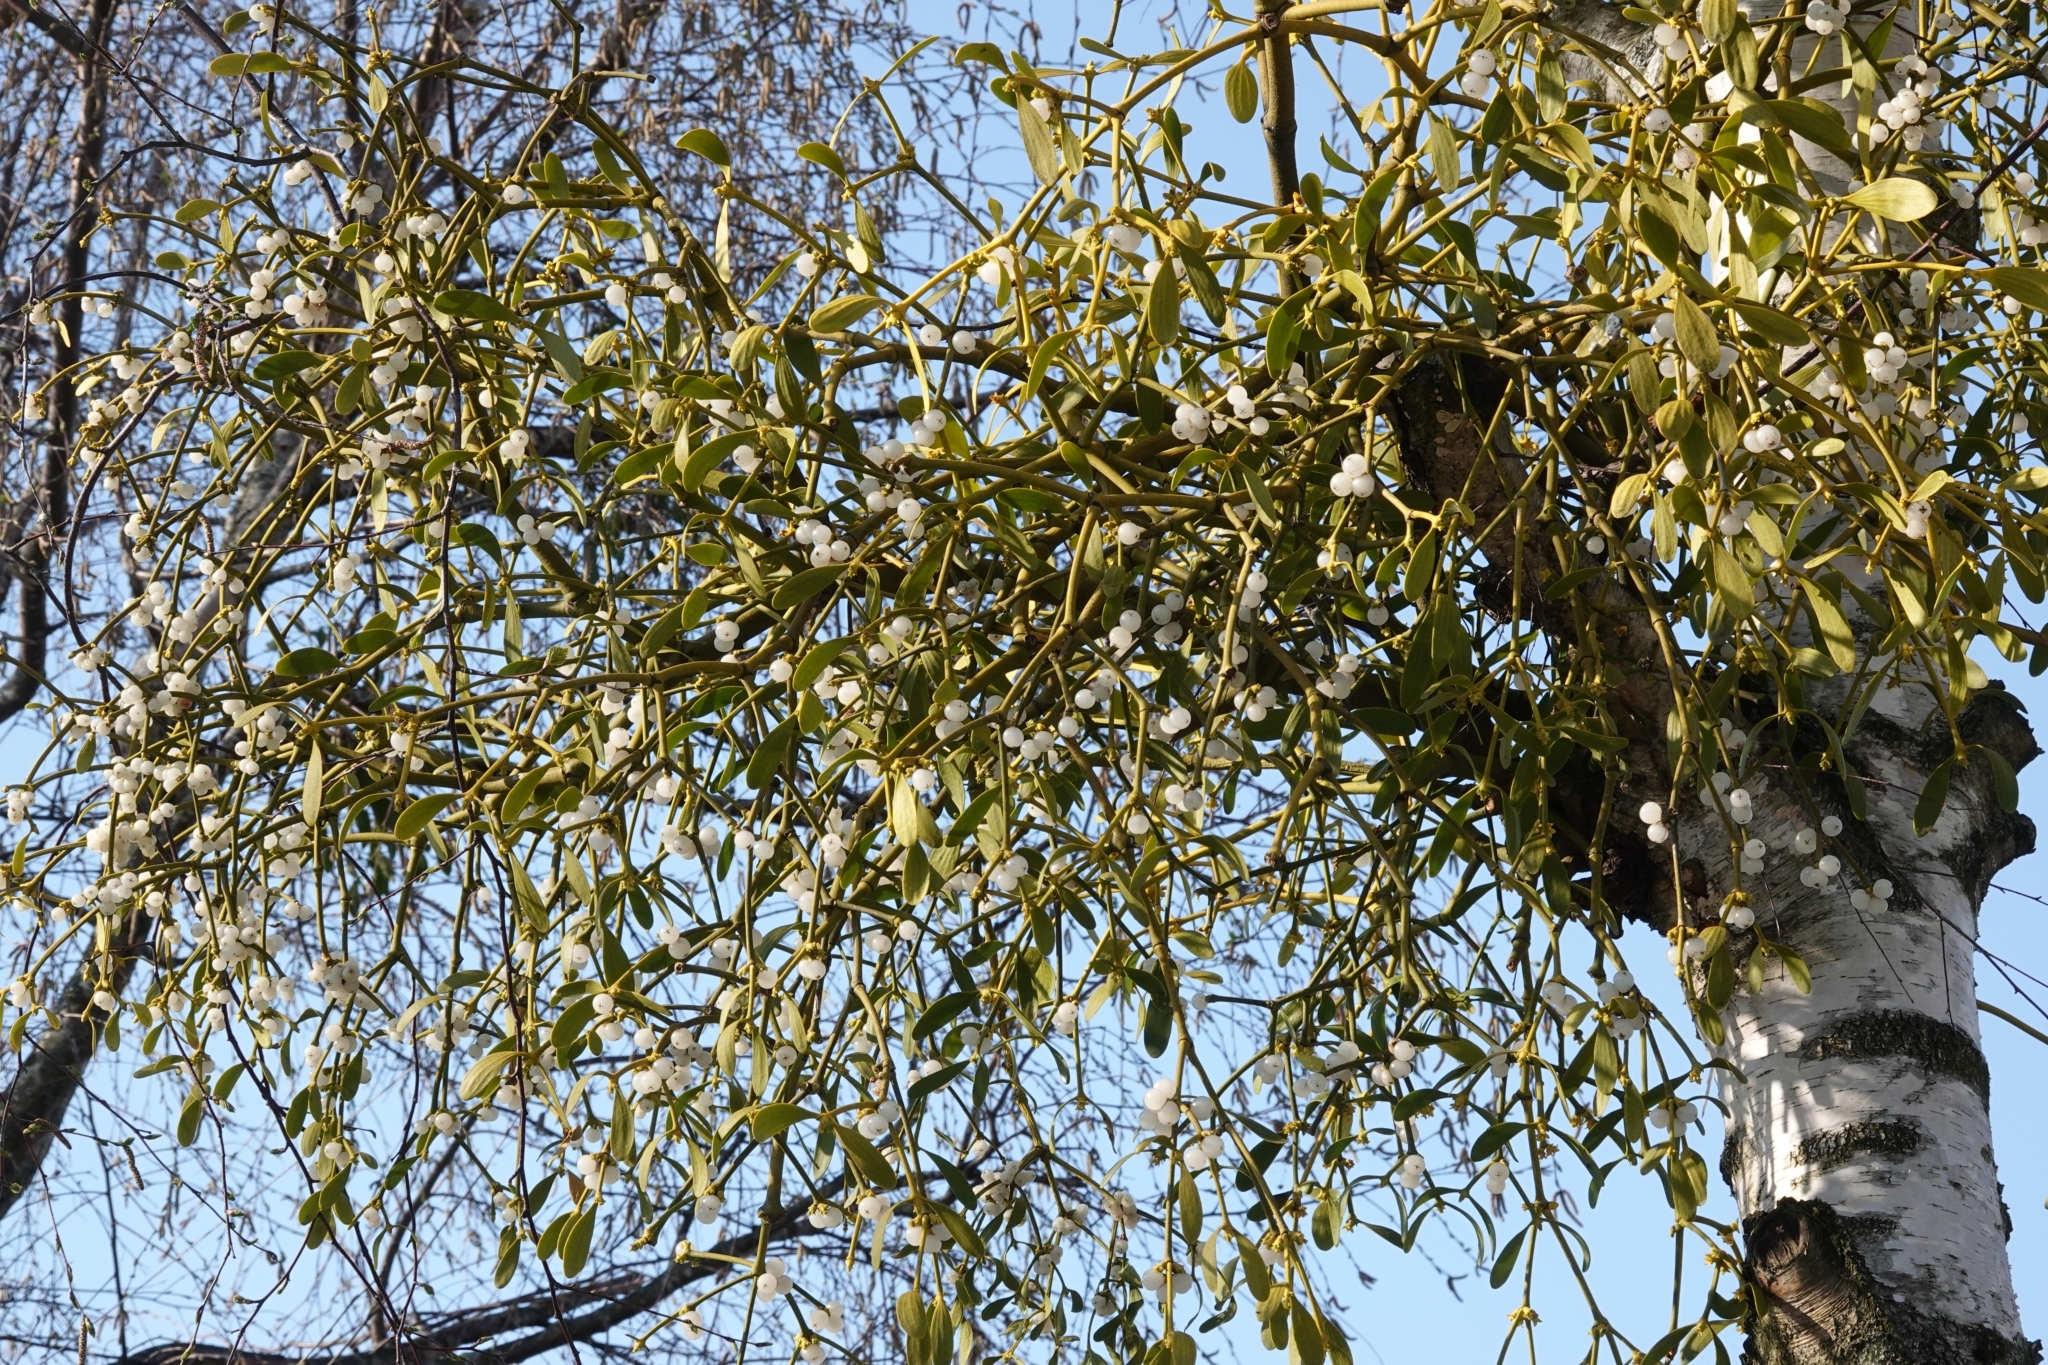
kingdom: Plantae
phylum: Tracheophyta
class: Magnoliopsida
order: Santalales
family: Viscaceae
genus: Viscum
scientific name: Viscum album
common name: Mistletoe
